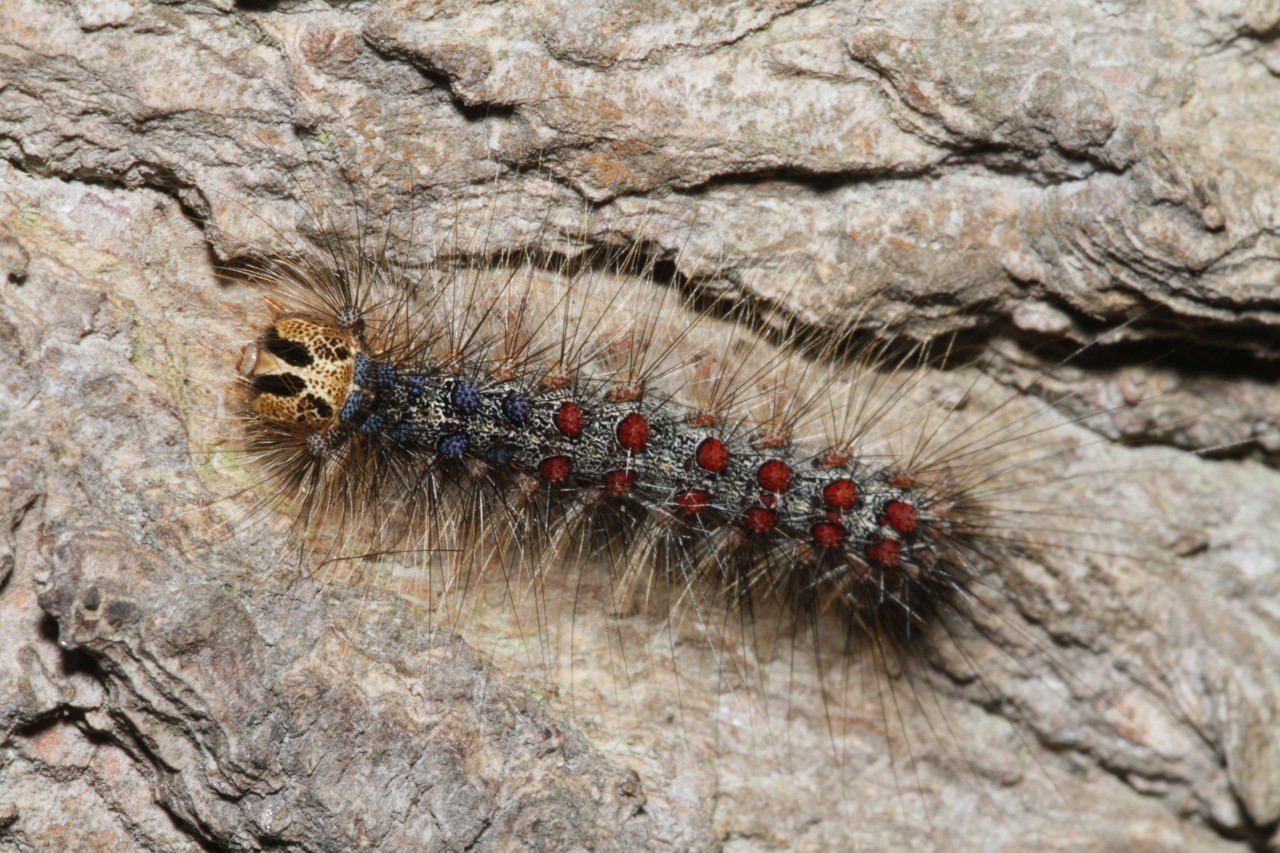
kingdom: Animalia
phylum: Arthropoda
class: Insecta
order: Lepidoptera
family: Erebidae
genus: Lymantria
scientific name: Lymantria dispar
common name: Gypsy moth
